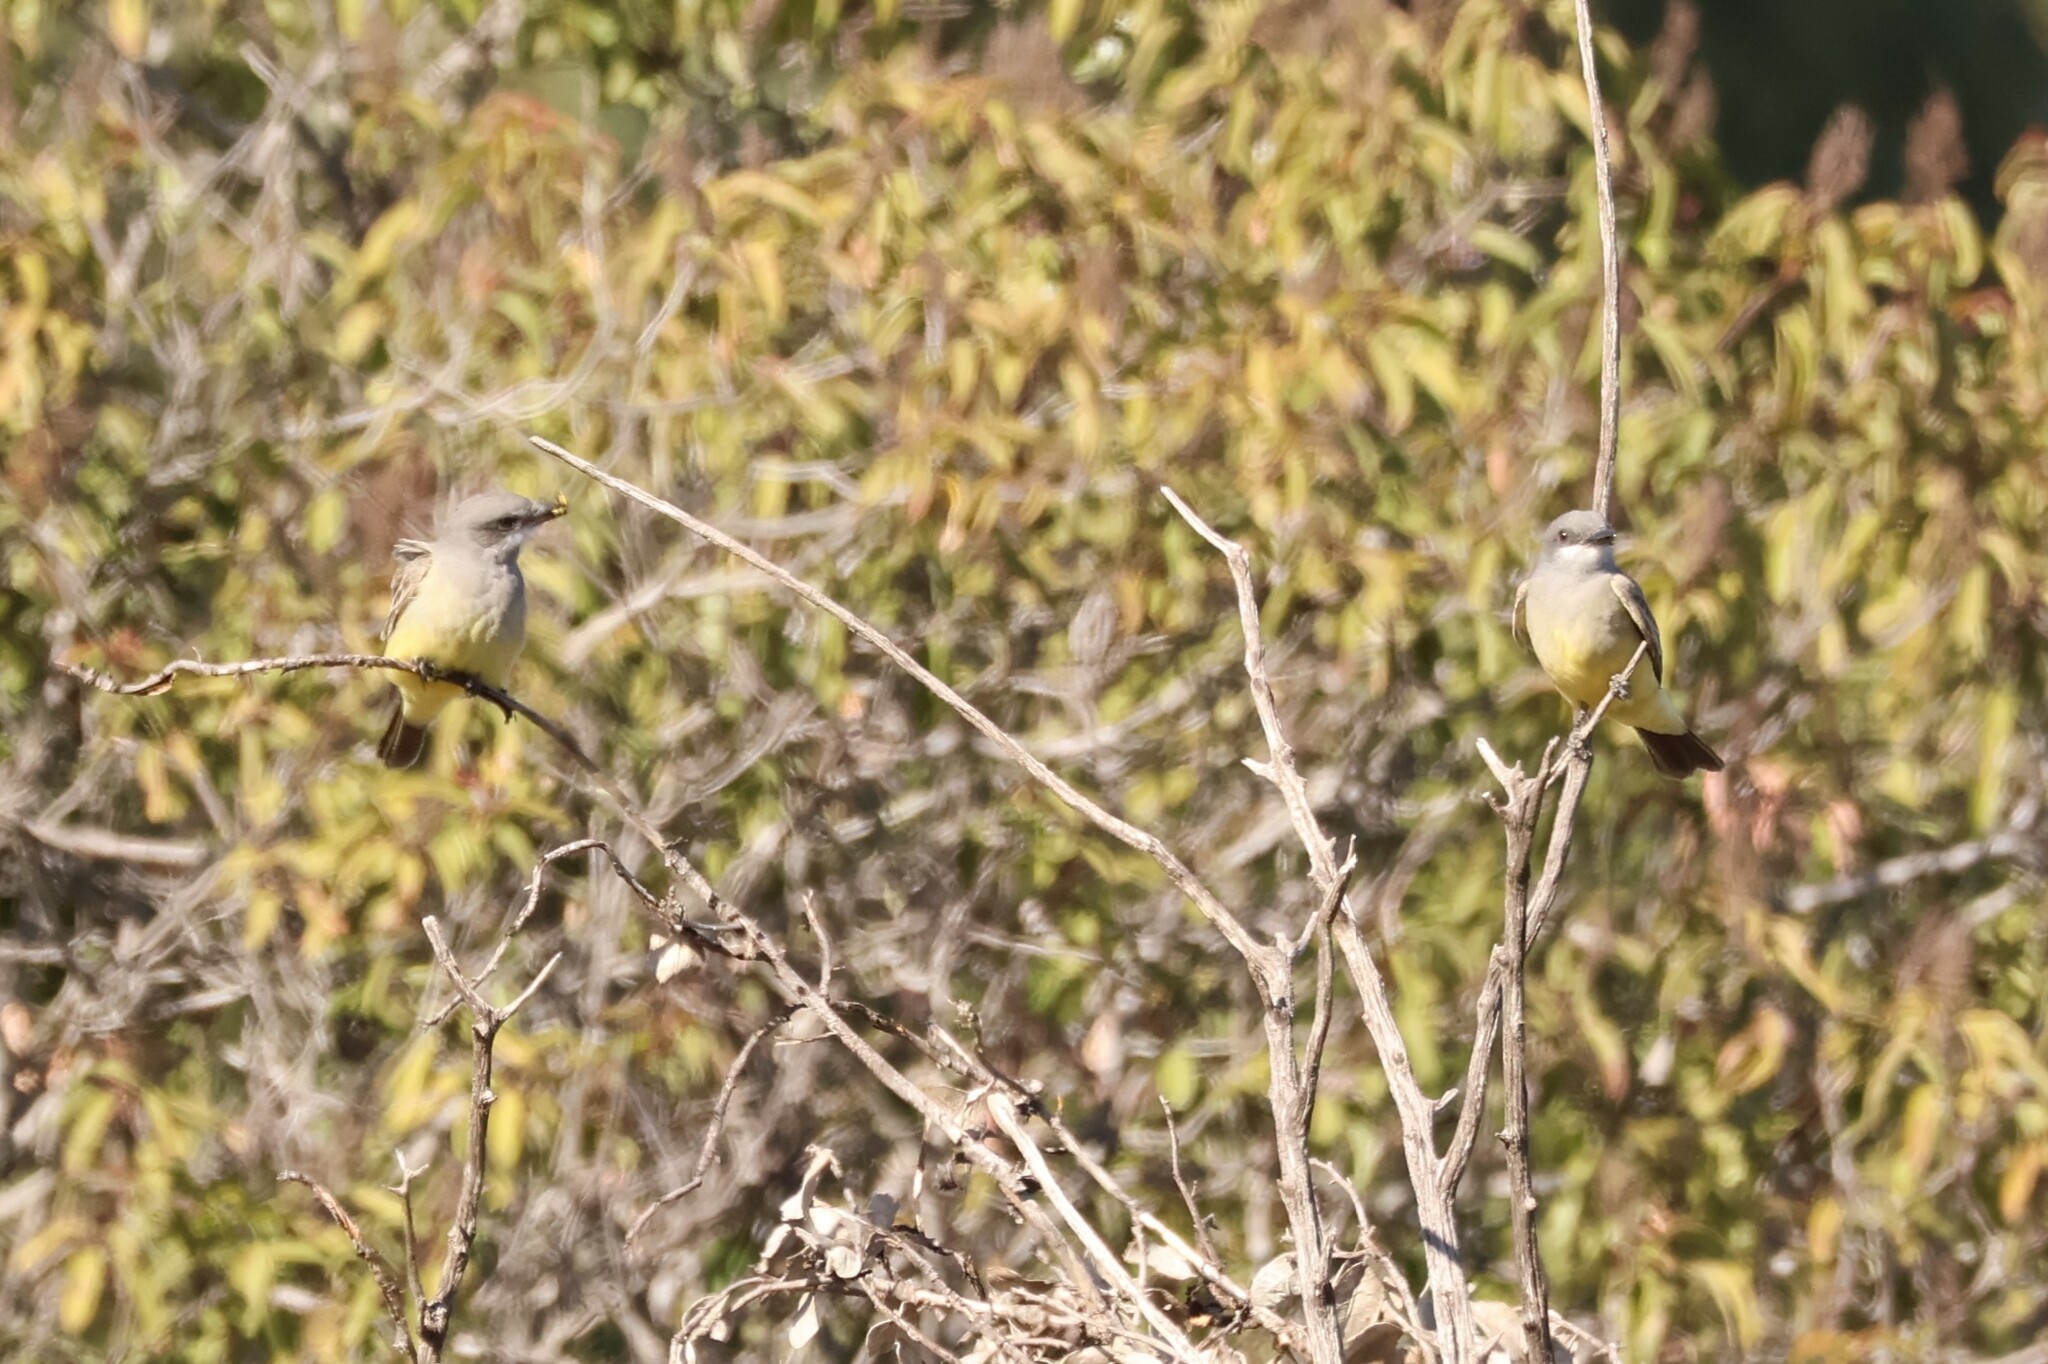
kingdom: Animalia
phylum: Chordata
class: Aves
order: Passeriformes
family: Tyrannidae
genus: Tyrannus
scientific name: Tyrannus vociferans
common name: Cassin's kingbird
